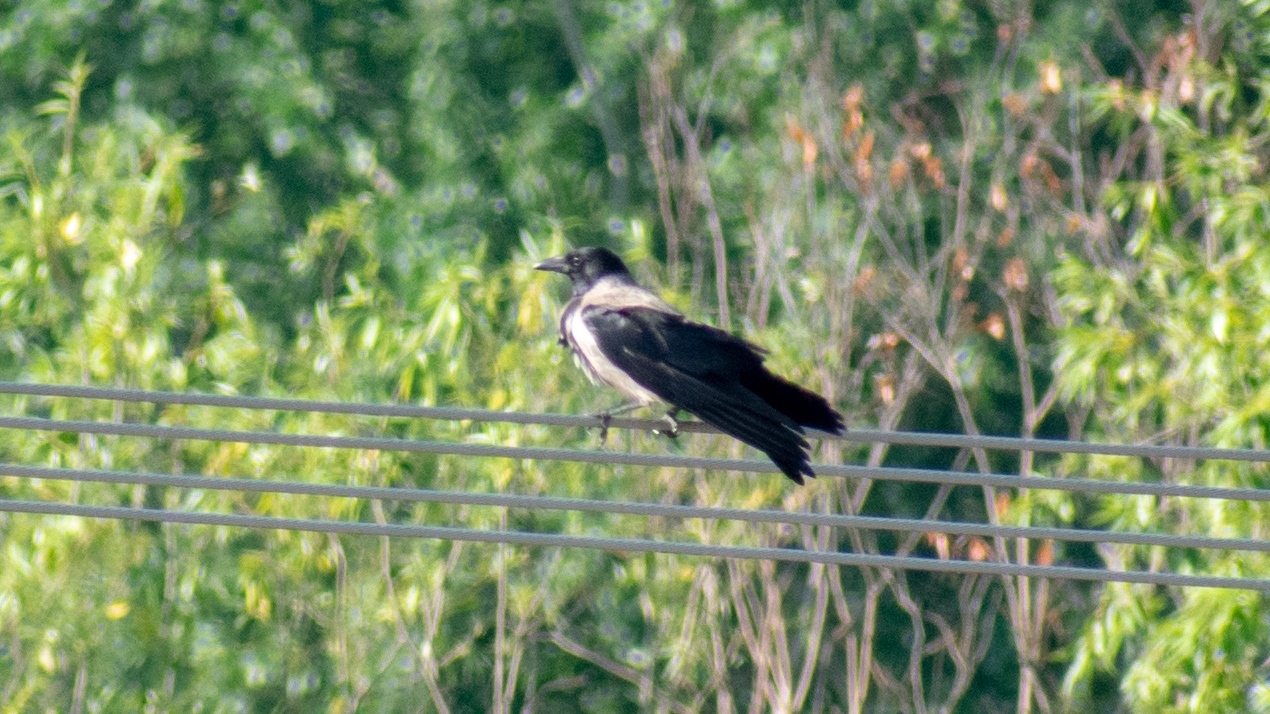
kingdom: Animalia
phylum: Chordata
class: Aves
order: Passeriformes
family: Corvidae
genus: Corvus
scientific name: Corvus cornix
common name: Hooded crow
